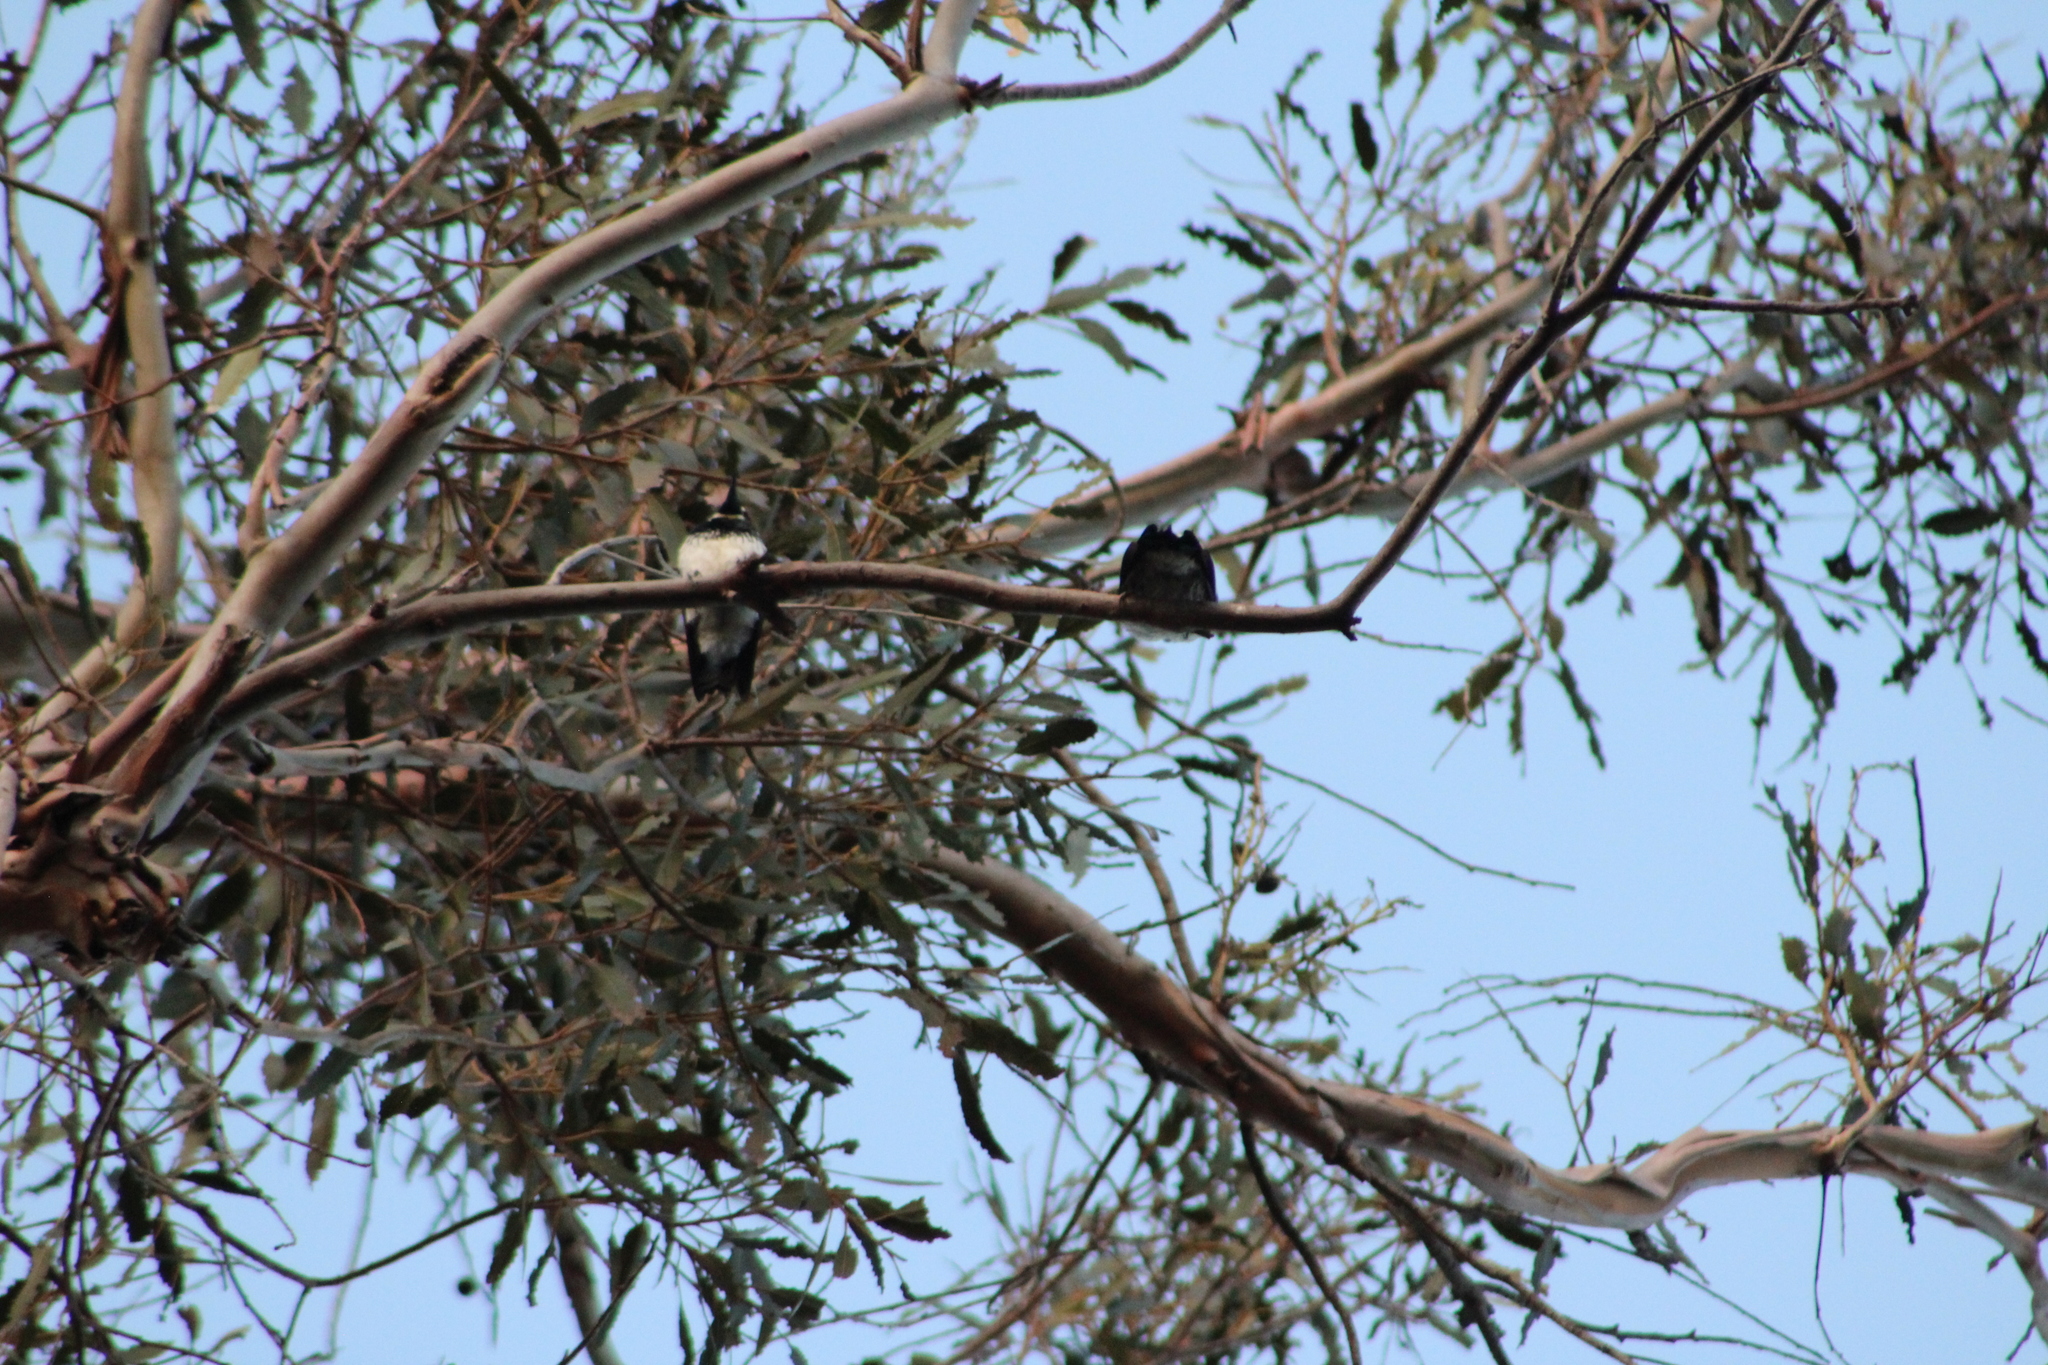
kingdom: Animalia
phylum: Chordata
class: Aves
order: Piciformes
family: Picidae
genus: Melanerpes
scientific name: Melanerpes formicivorus
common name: Acorn woodpecker
